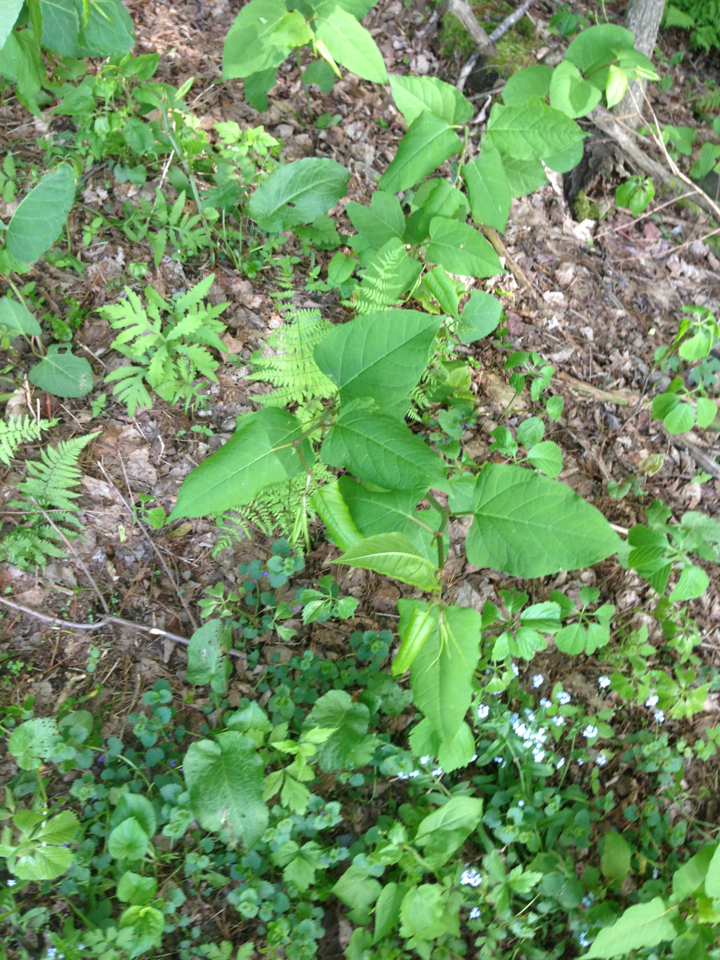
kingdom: Plantae
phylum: Tracheophyta
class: Magnoliopsida
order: Caryophyllales
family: Polygonaceae
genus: Reynoutria
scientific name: Reynoutria japonica
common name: Japanese knotweed
